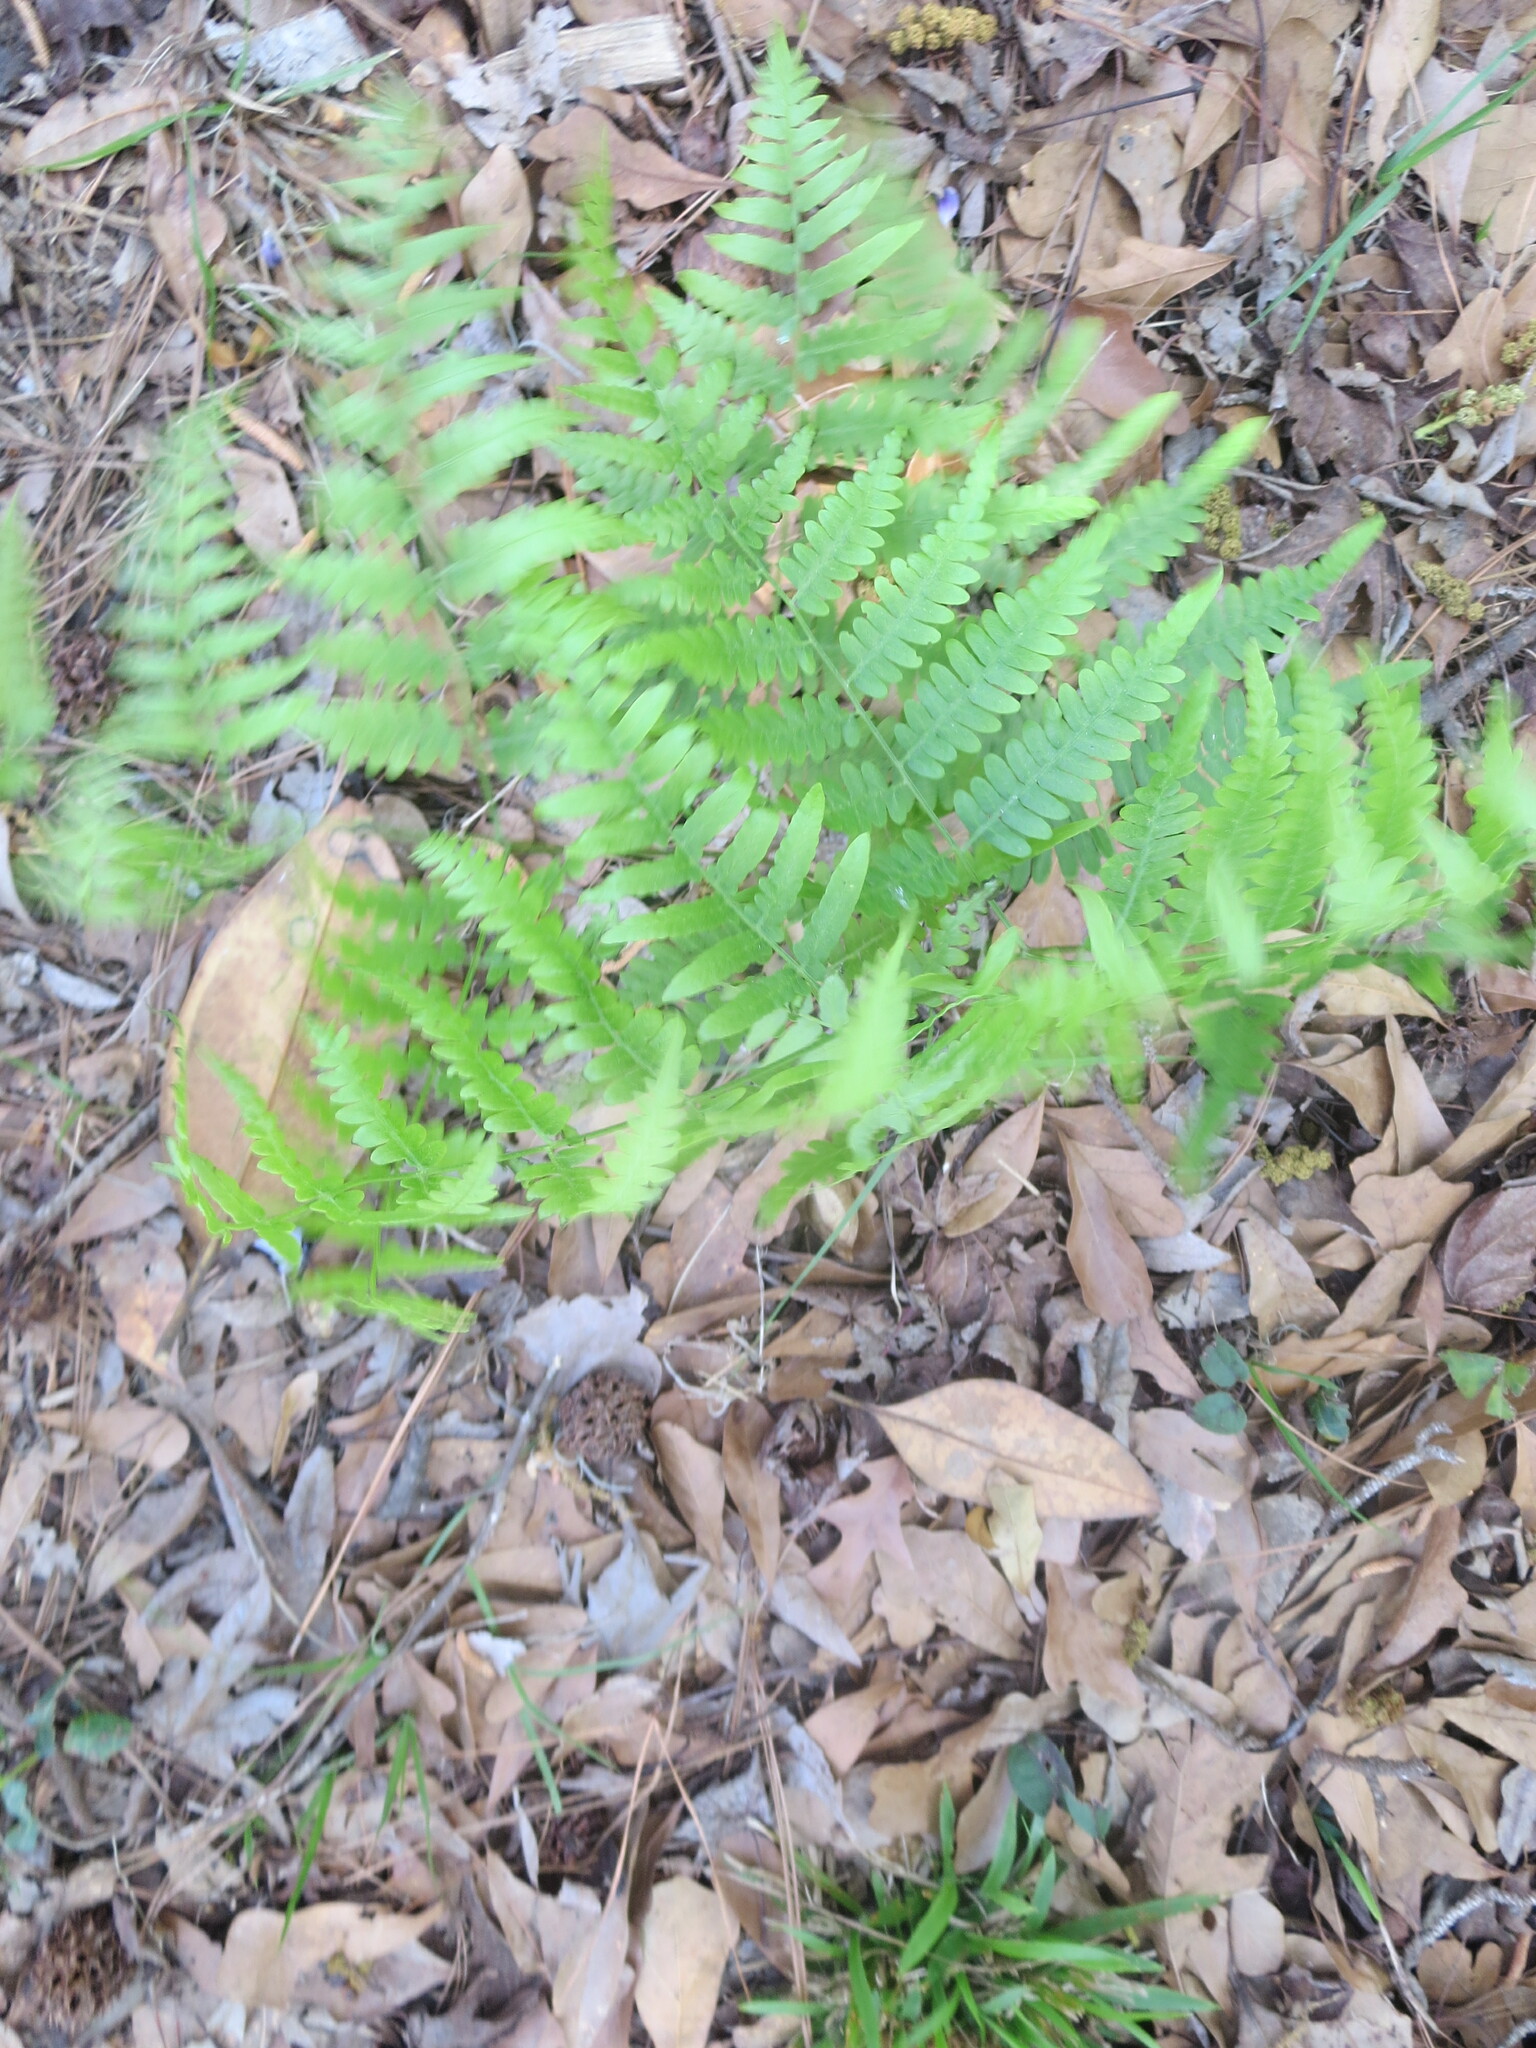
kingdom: Plantae
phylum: Tracheophyta
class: Polypodiopsida
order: Polypodiales
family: Dennstaedtiaceae
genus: Pteridium
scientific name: Pteridium aquilinum
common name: Bracken
